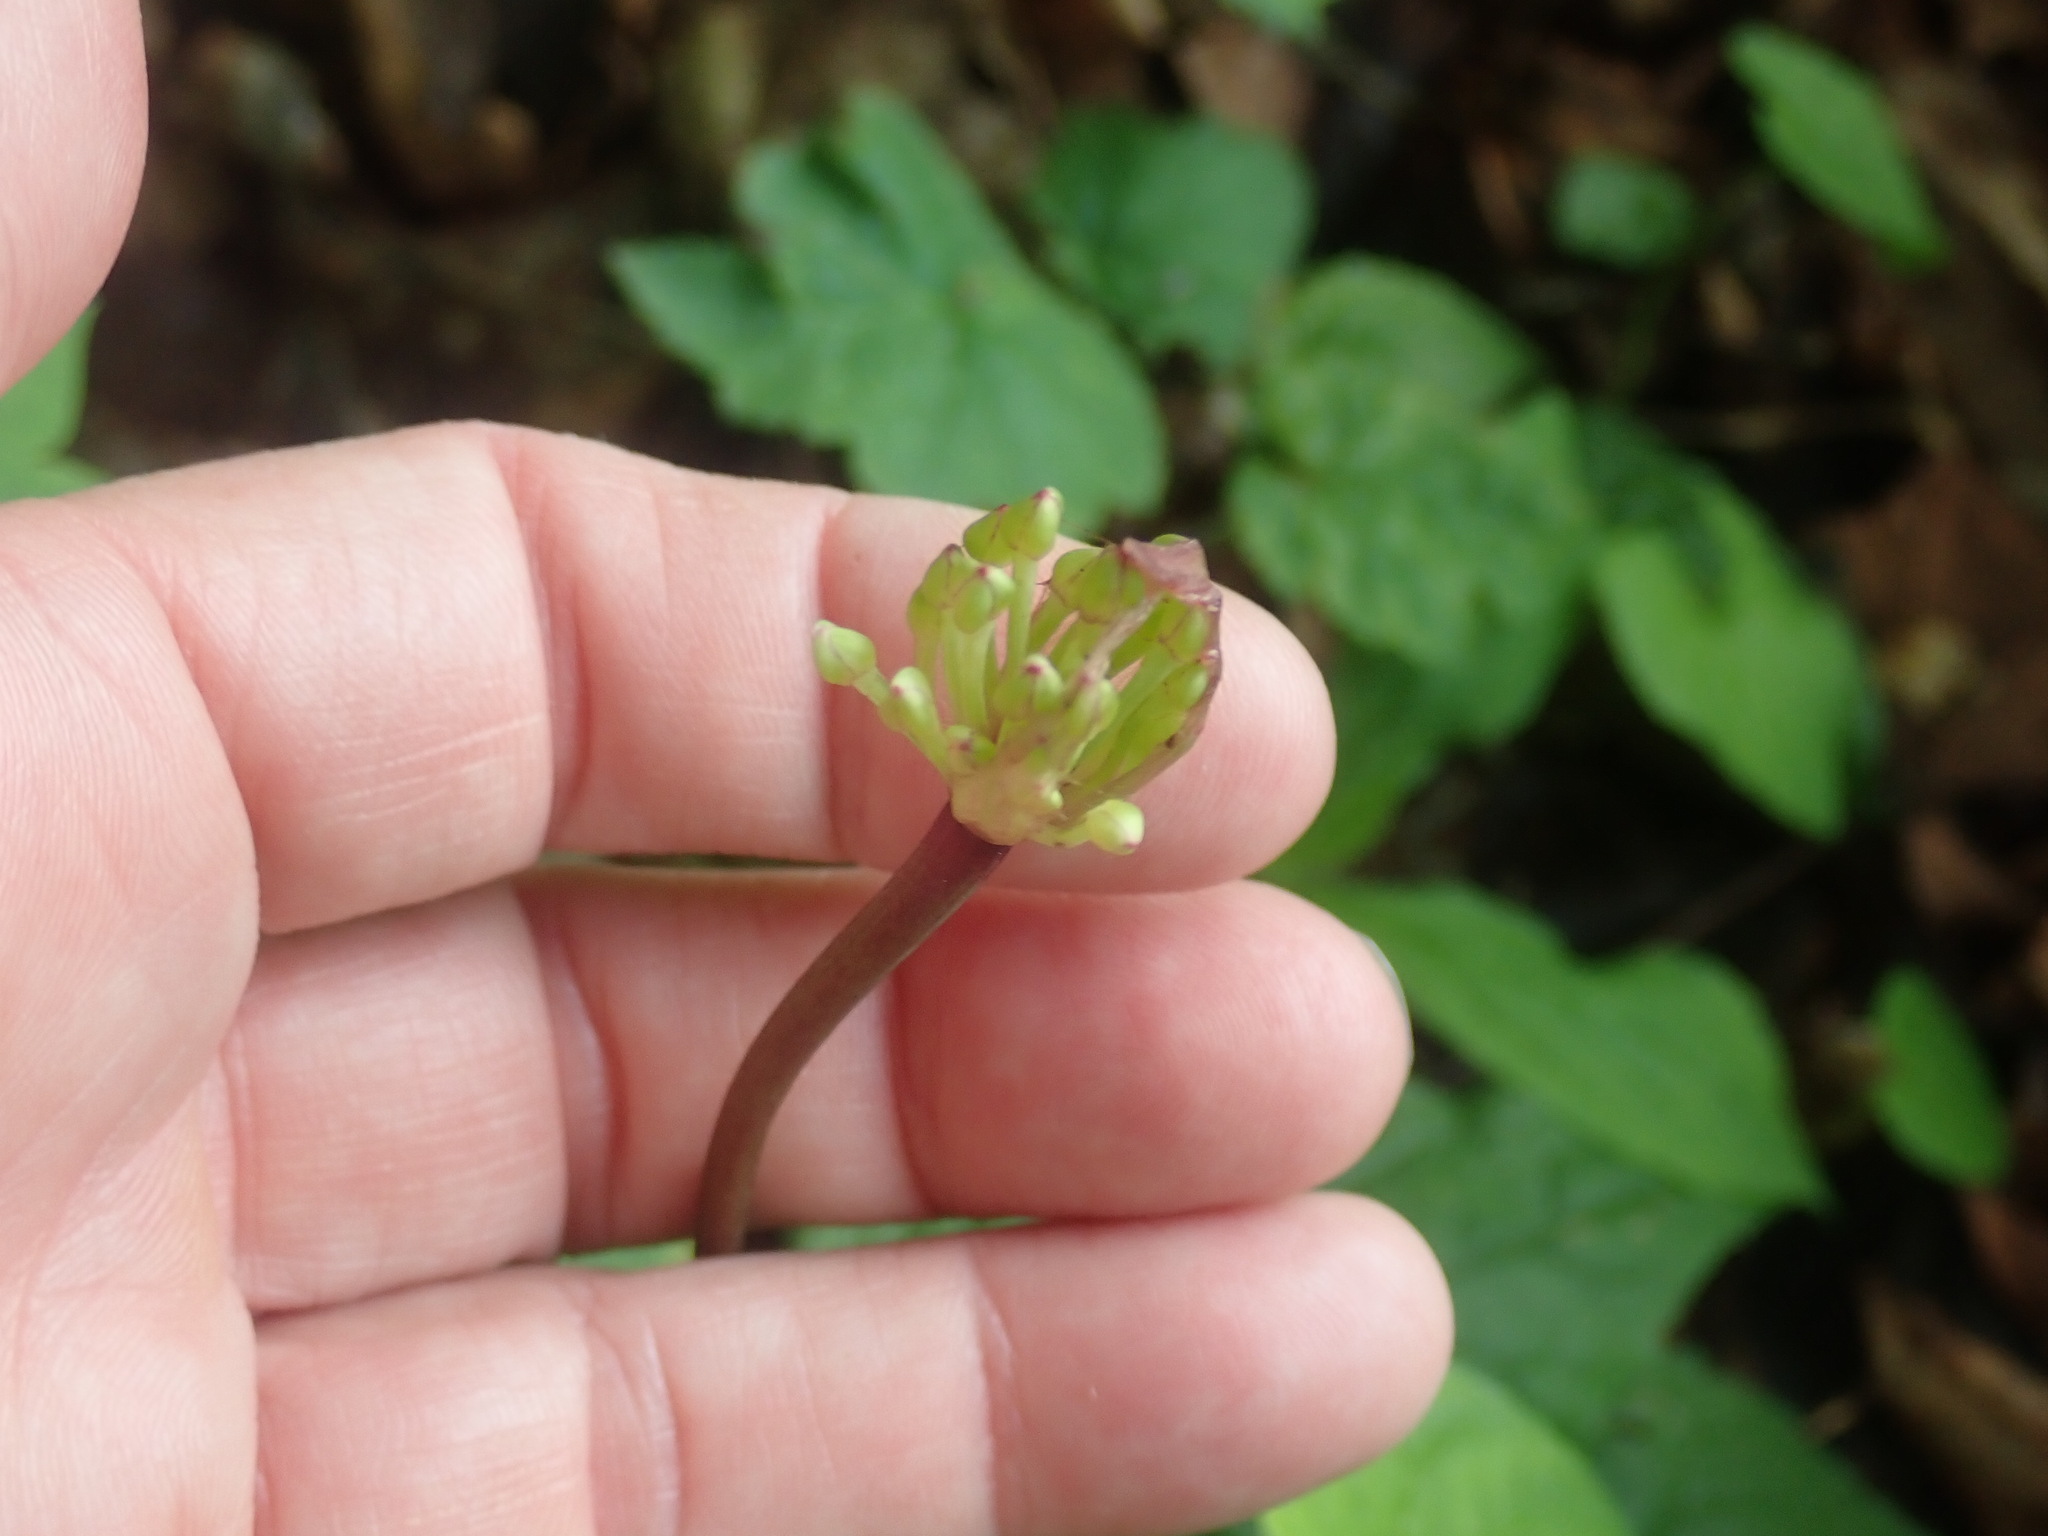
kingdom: Plantae
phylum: Tracheophyta
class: Liliopsida
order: Asparagales
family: Amaryllidaceae
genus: Allium
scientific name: Allium tricoccum
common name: Ramp
